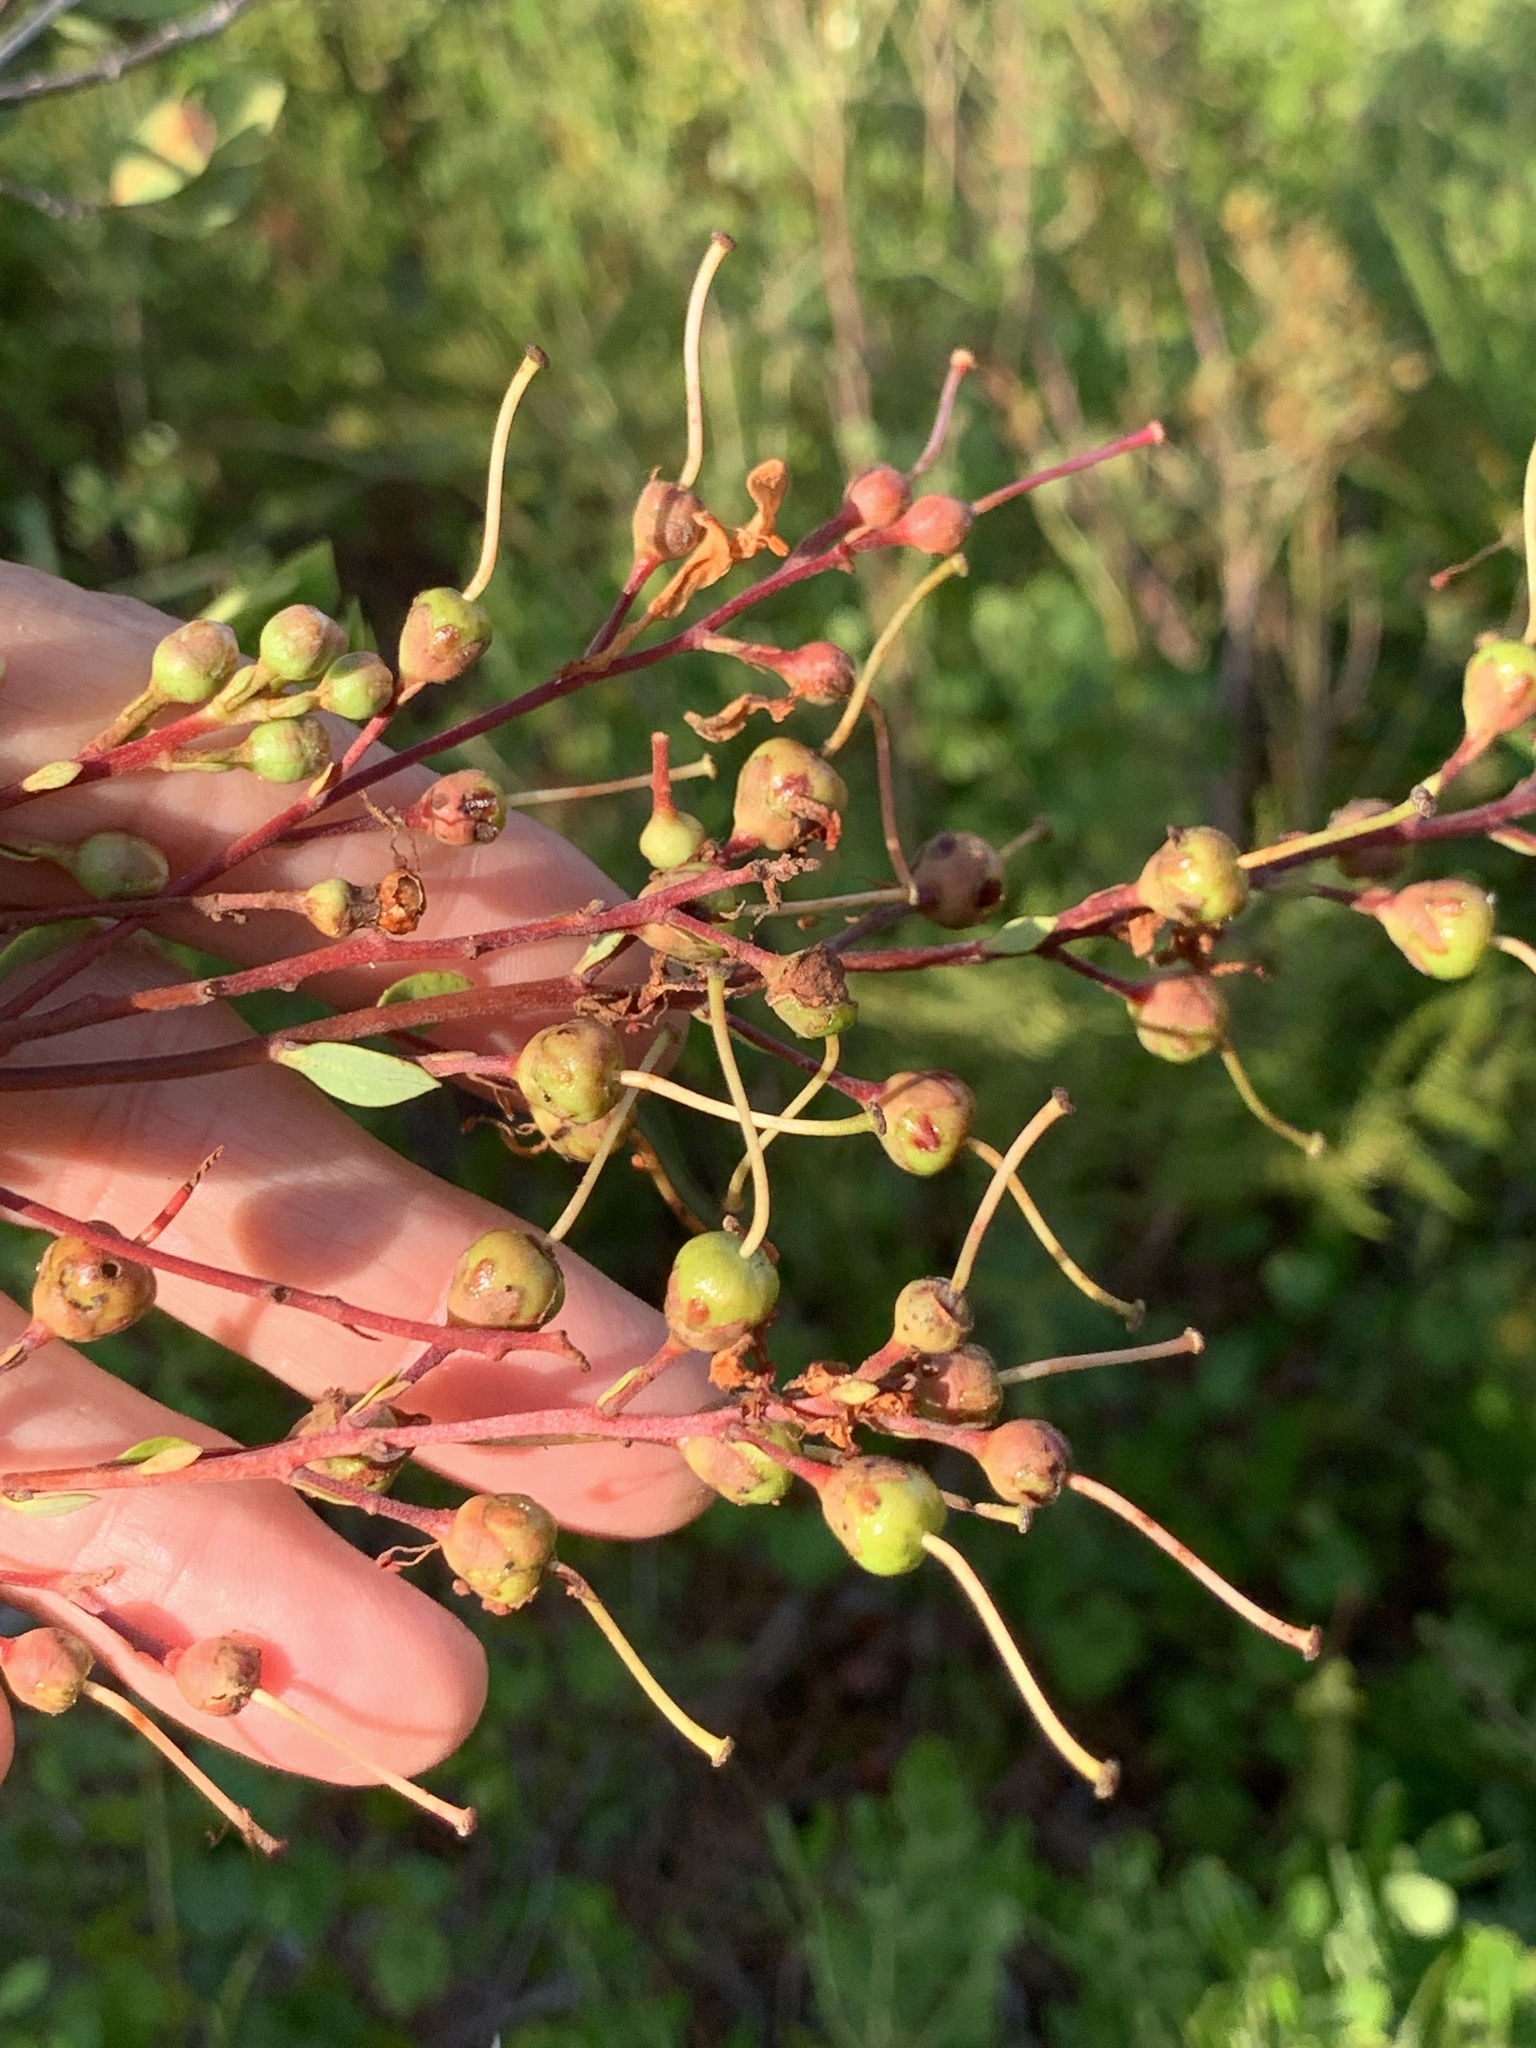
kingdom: Plantae
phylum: Tracheophyta
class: Magnoliopsida
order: Ericales
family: Ericaceae
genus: Bejaria
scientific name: Bejaria racemosa
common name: Tarflower
